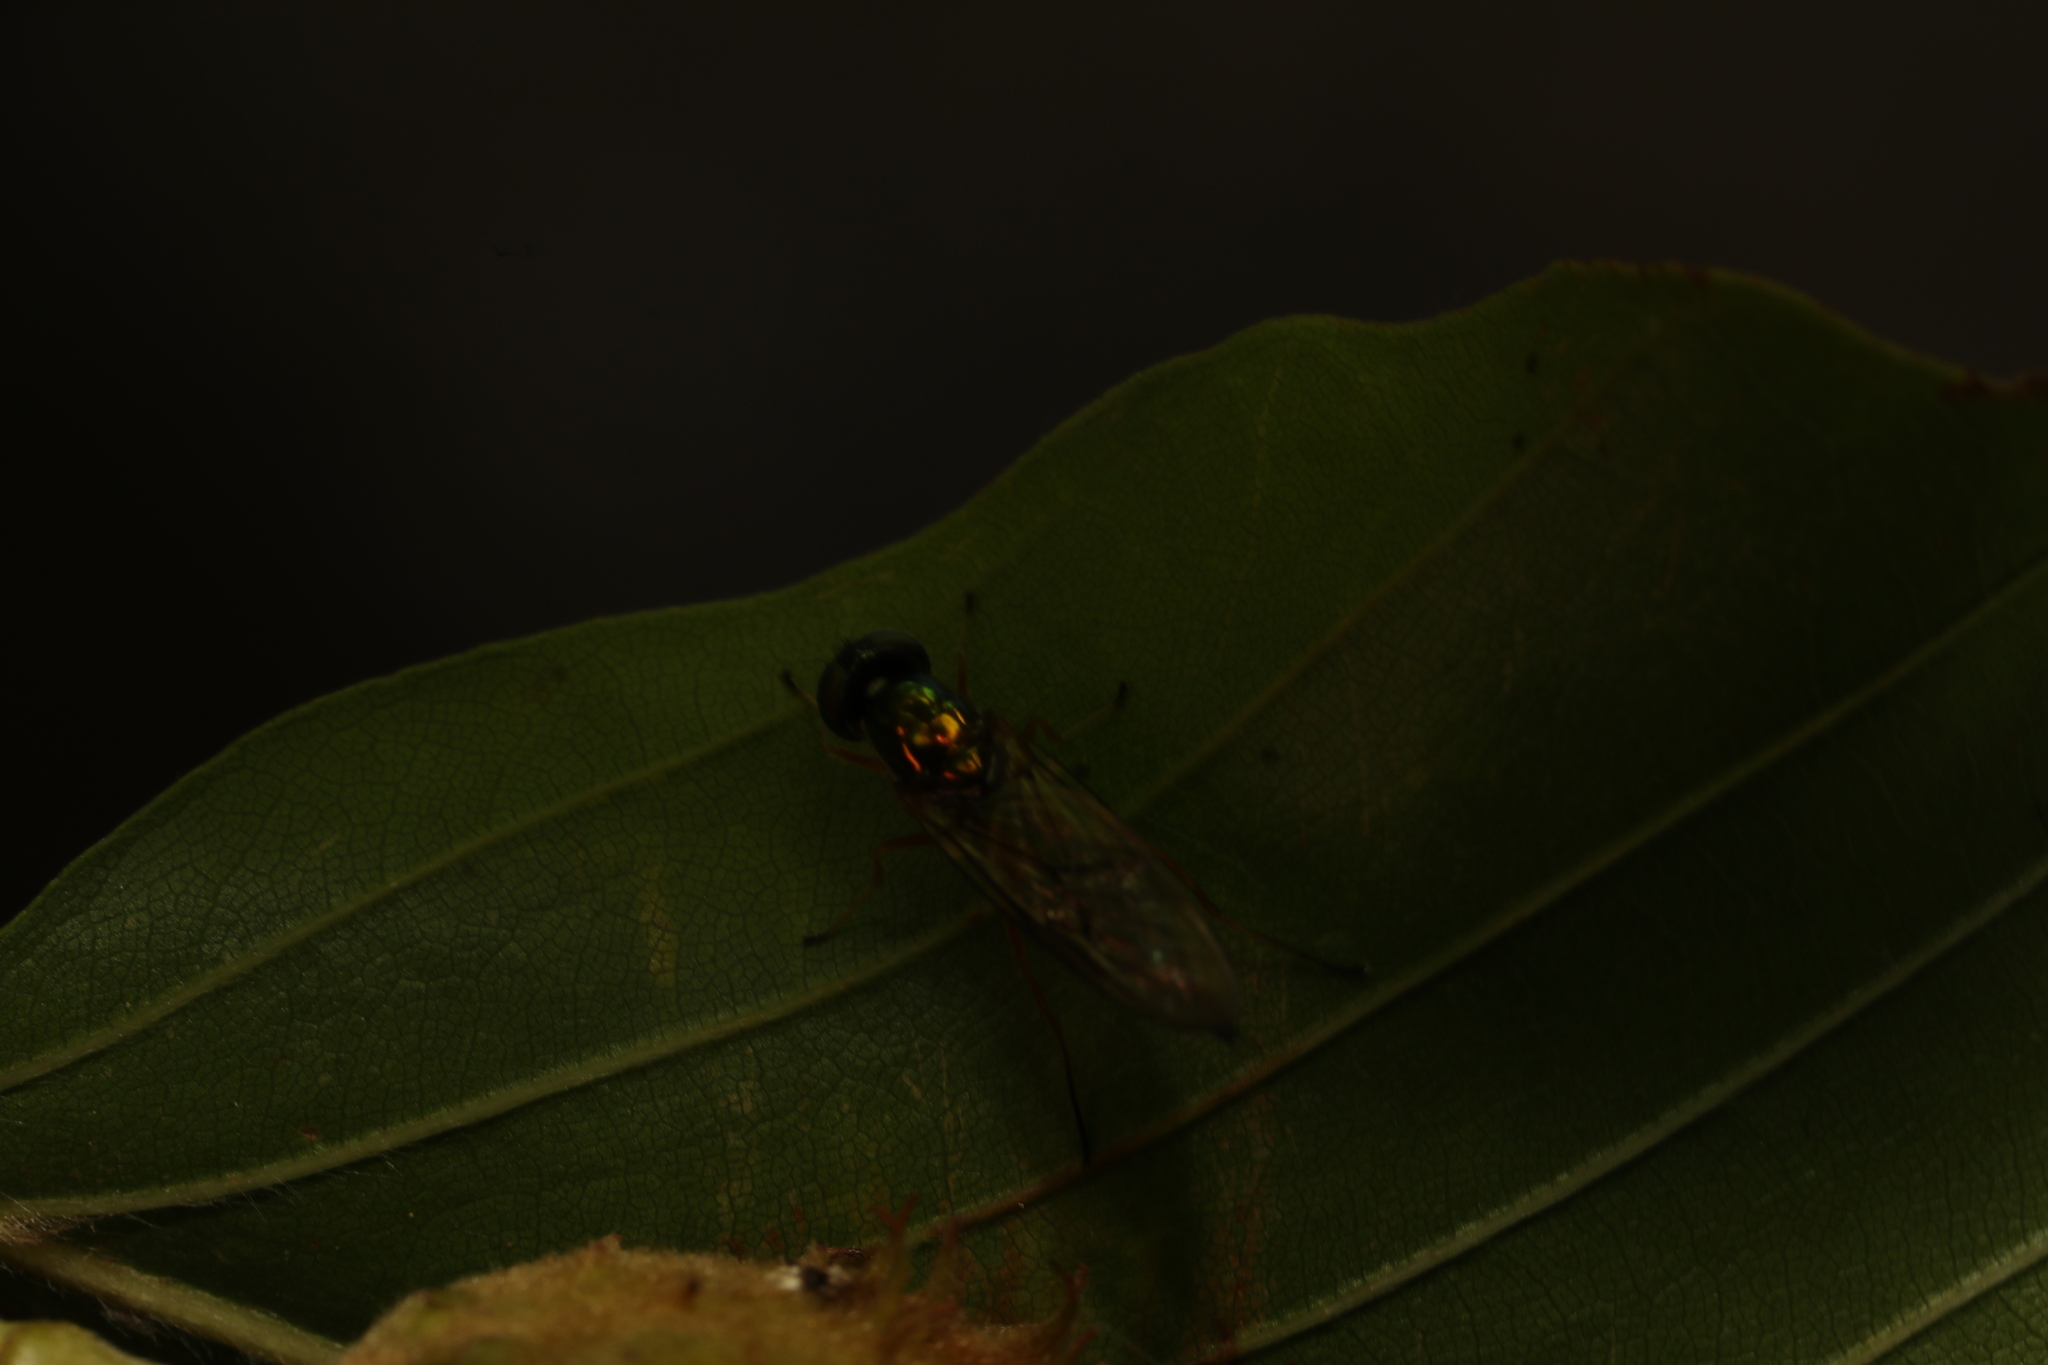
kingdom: Animalia
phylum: Arthropoda
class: Insecta
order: Diptera
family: Stratiomyidae
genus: Sargus
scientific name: Sargus bipunctatus
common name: Twin-spot centurion
